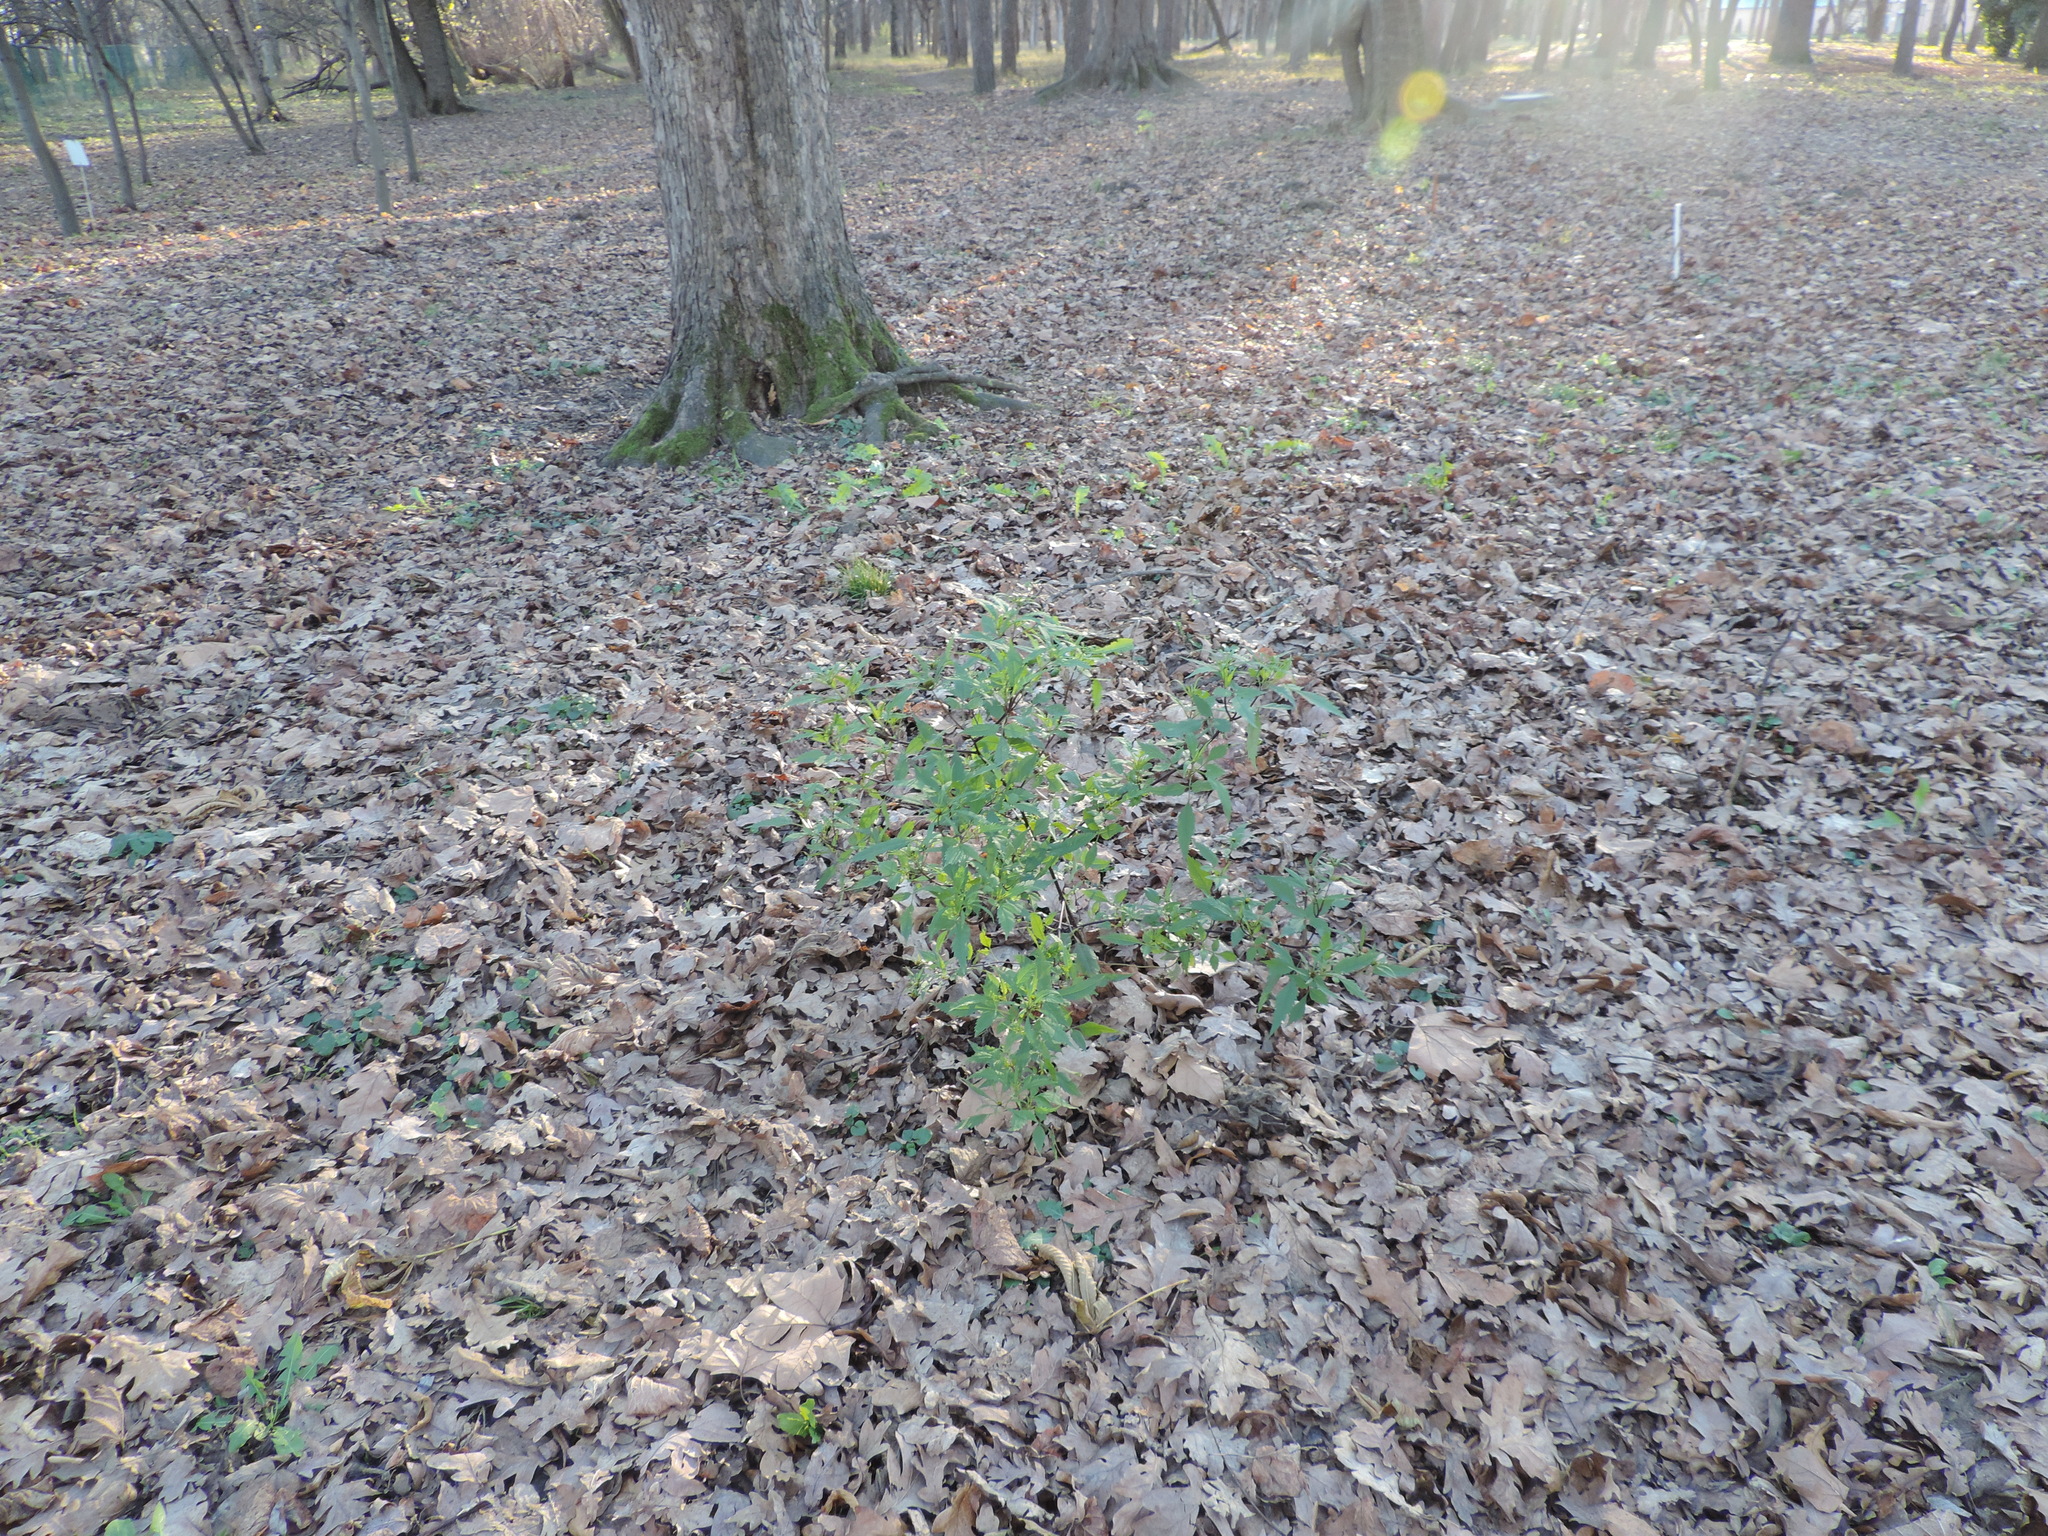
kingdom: Plantae
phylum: Tracheophyta
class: Magnoliopsida
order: Asterales
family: Asteraceae
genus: Bidens
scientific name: Bidens frondosa
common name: Beggarticks
